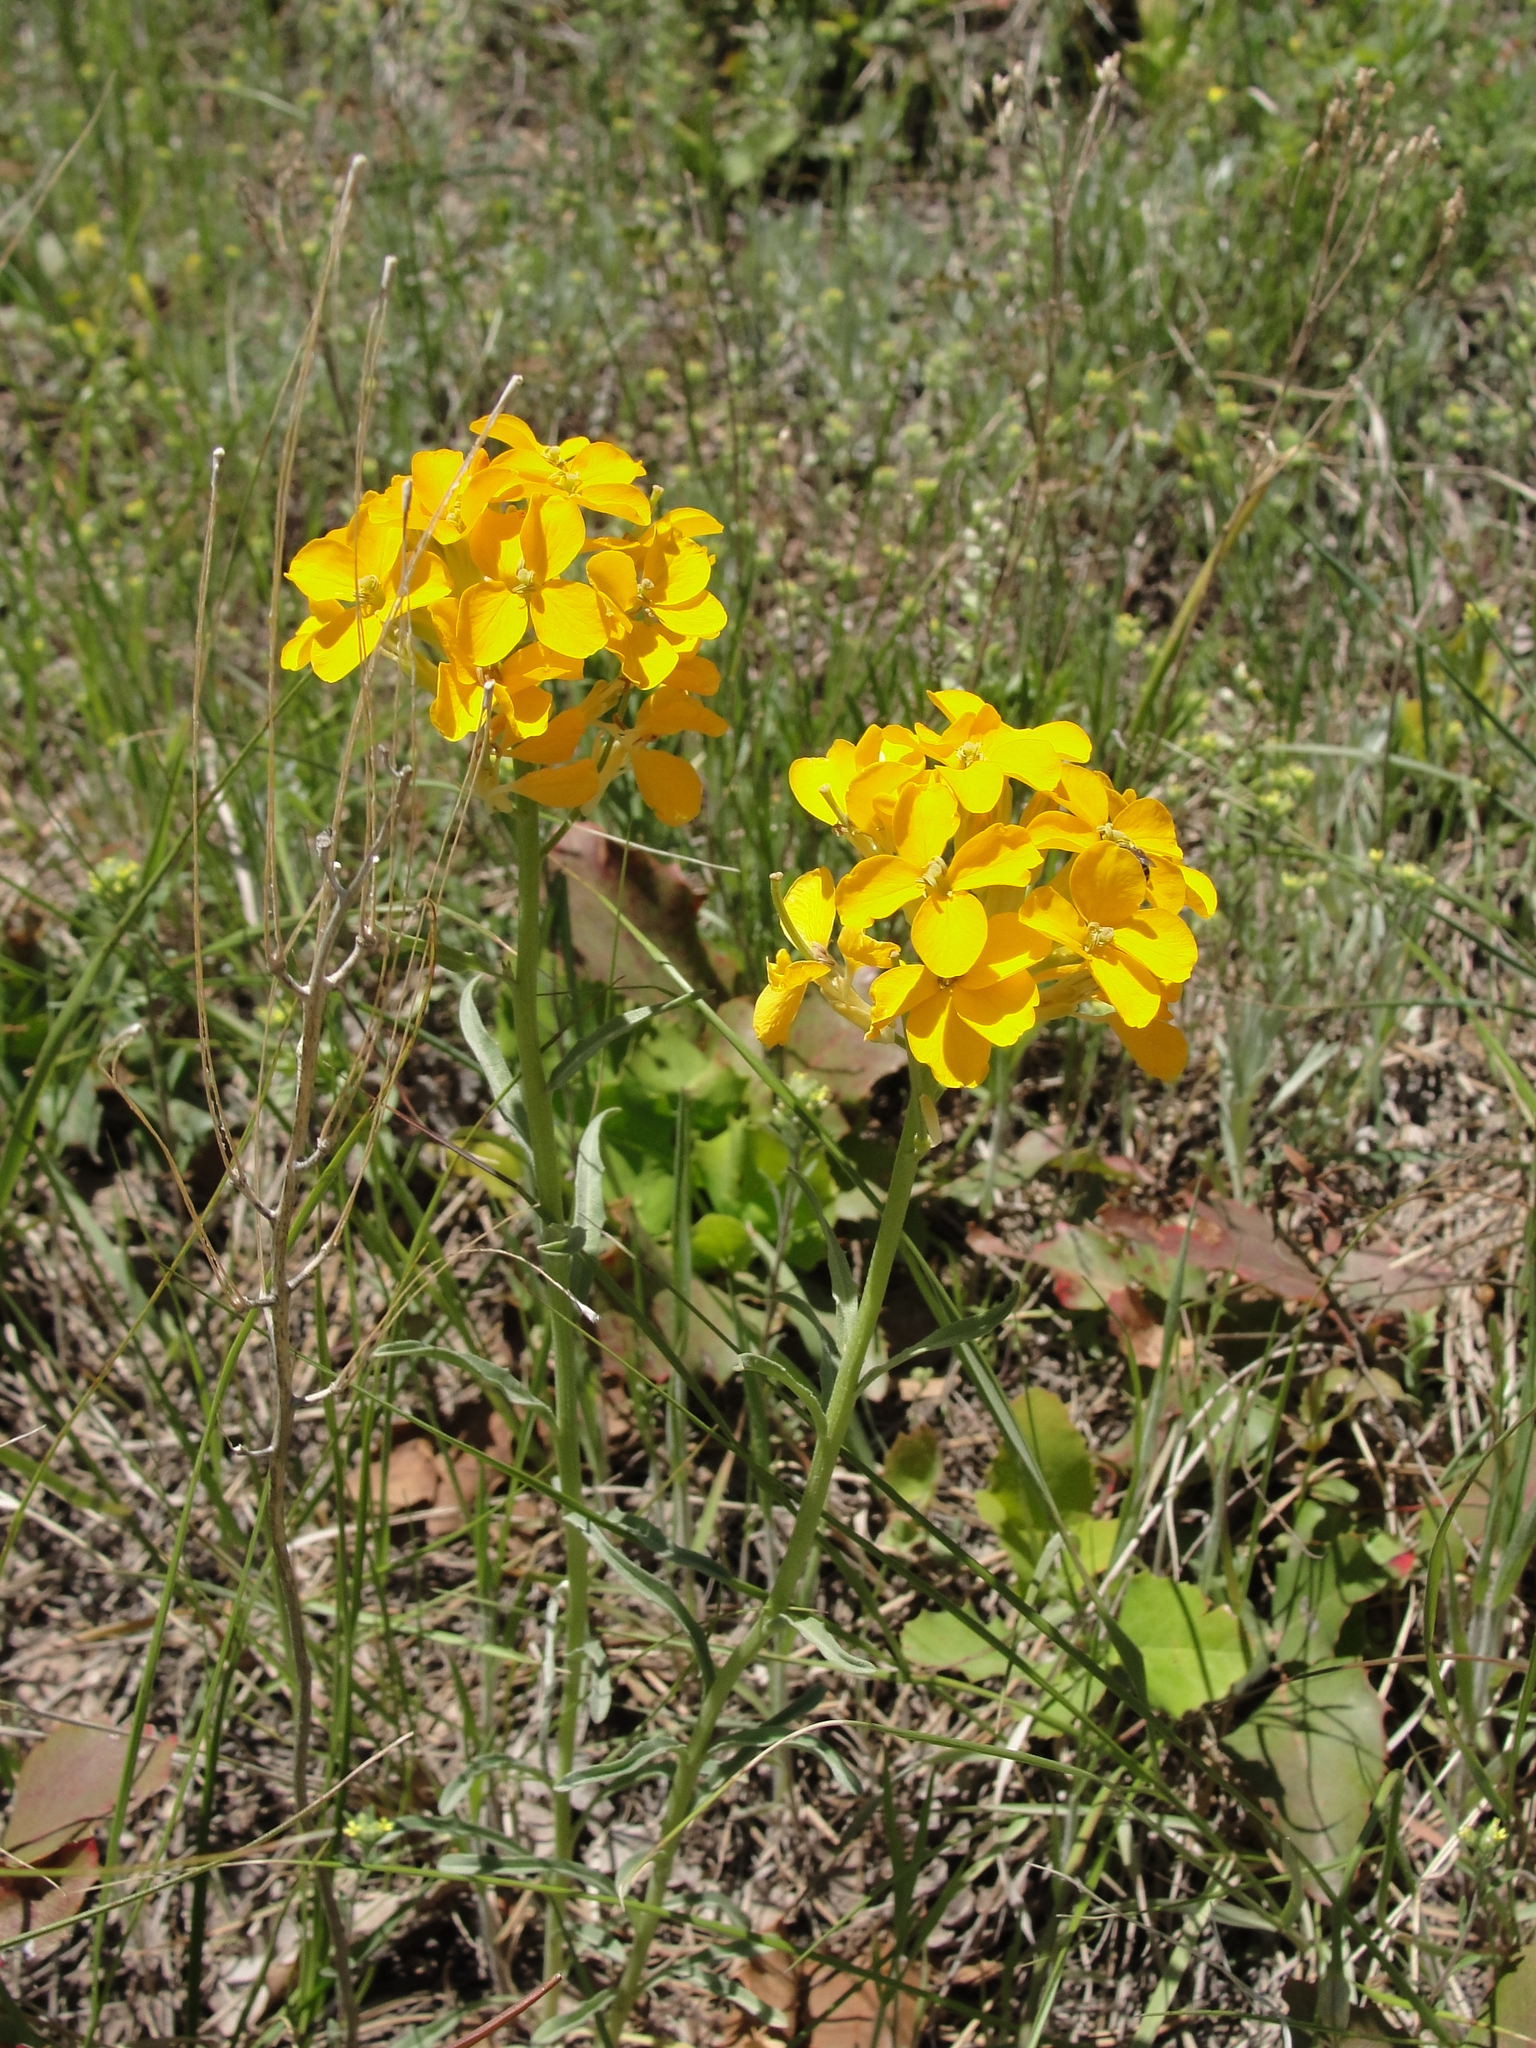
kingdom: Plantae
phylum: Tracheophyta
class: Magnoliopsida
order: Brassicales
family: Brassicaceae
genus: Erysimum
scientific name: Erysimum capitatum
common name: Western wallflower
